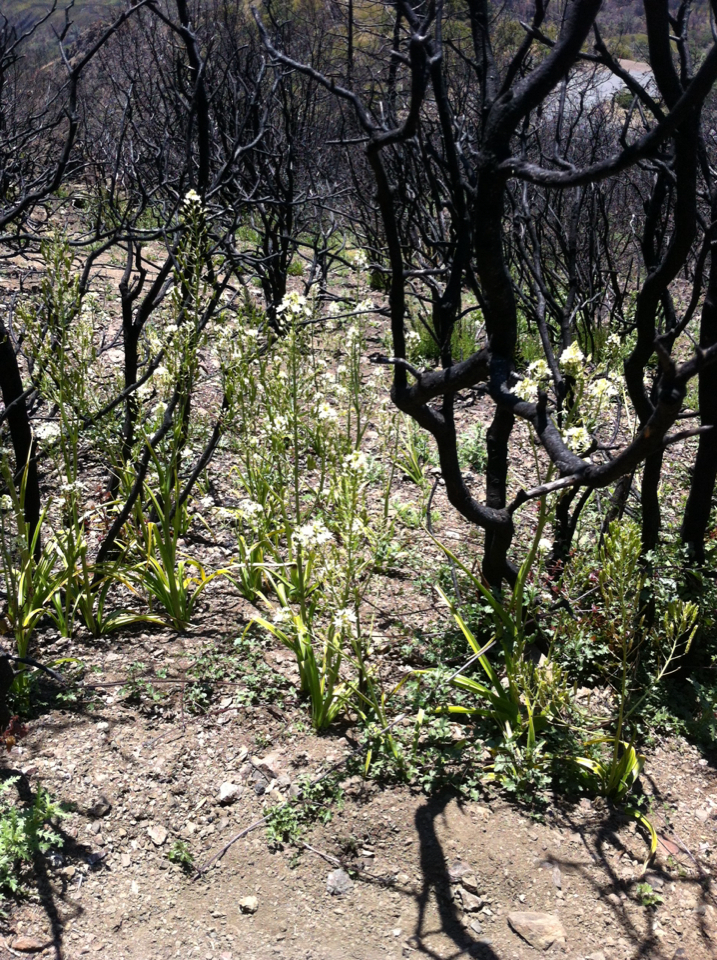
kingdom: Plantae
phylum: Tracheophyta
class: Liliopsida
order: Liliales
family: Melanthiaceae
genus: Toxicoscordion
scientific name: Toxicoscordion fremontii
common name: Fremont's death camas
